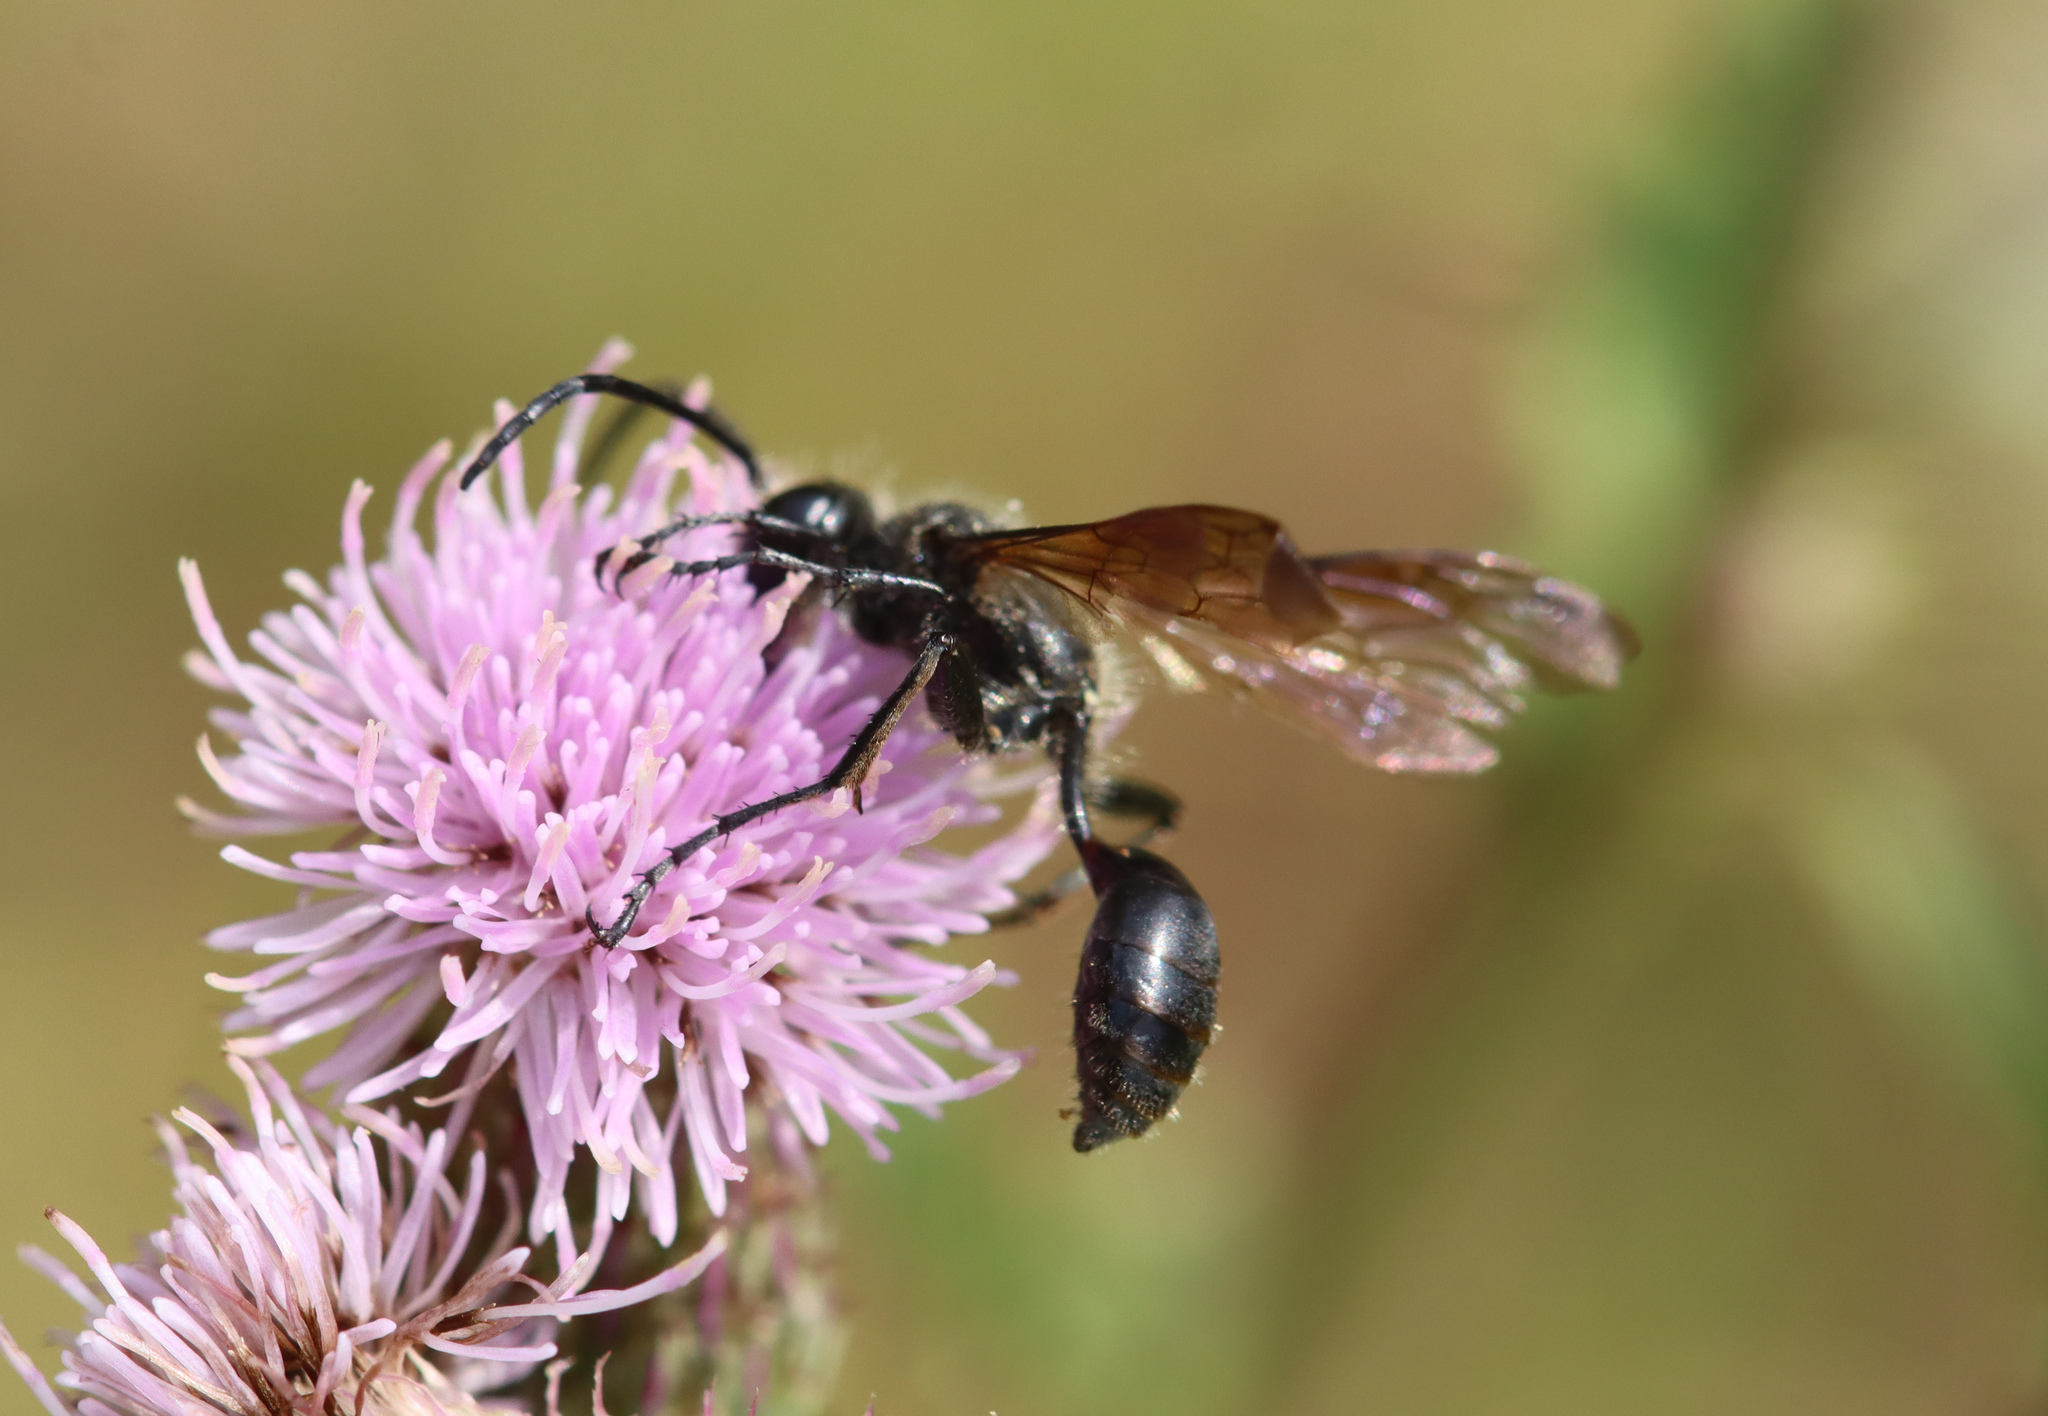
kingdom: Animalia
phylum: Arthropoda
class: Insecta
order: Hymenoptera
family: Sphecidae
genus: Isodontia
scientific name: Isodontia mexicana
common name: Mud dauber
